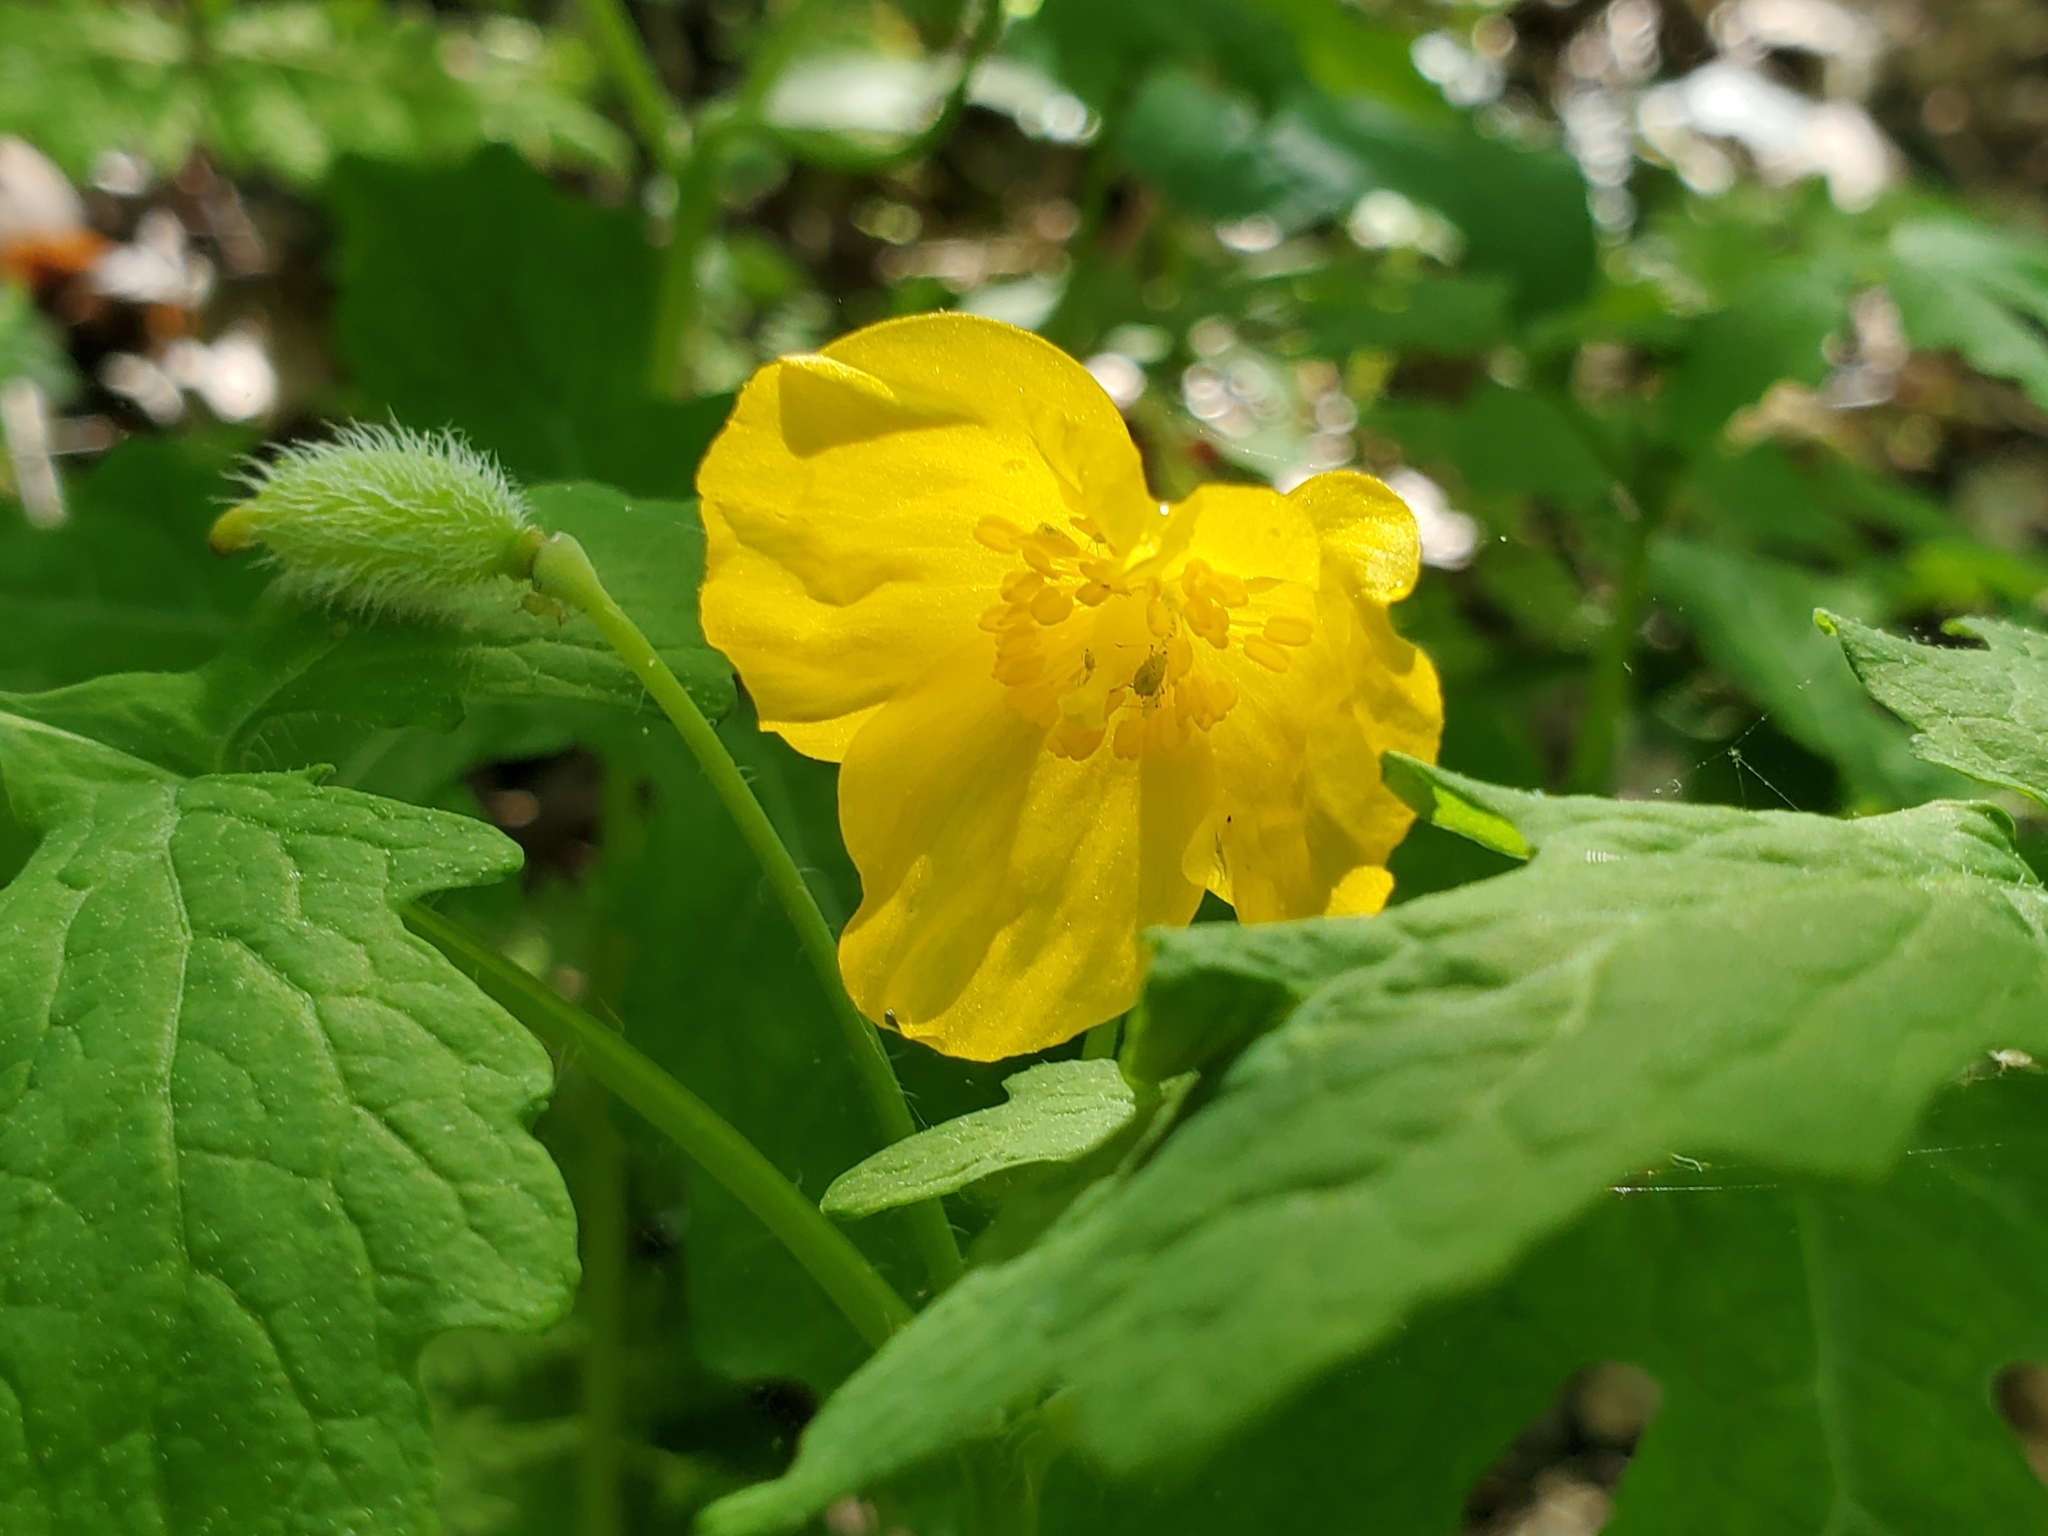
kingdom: Plantae
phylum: Tracheophyta
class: Magnoliopsida
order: Ranunculales
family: Papaveraceae
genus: Stylophorum
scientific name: Stylophorum diphyllum
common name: Celandine poppy
